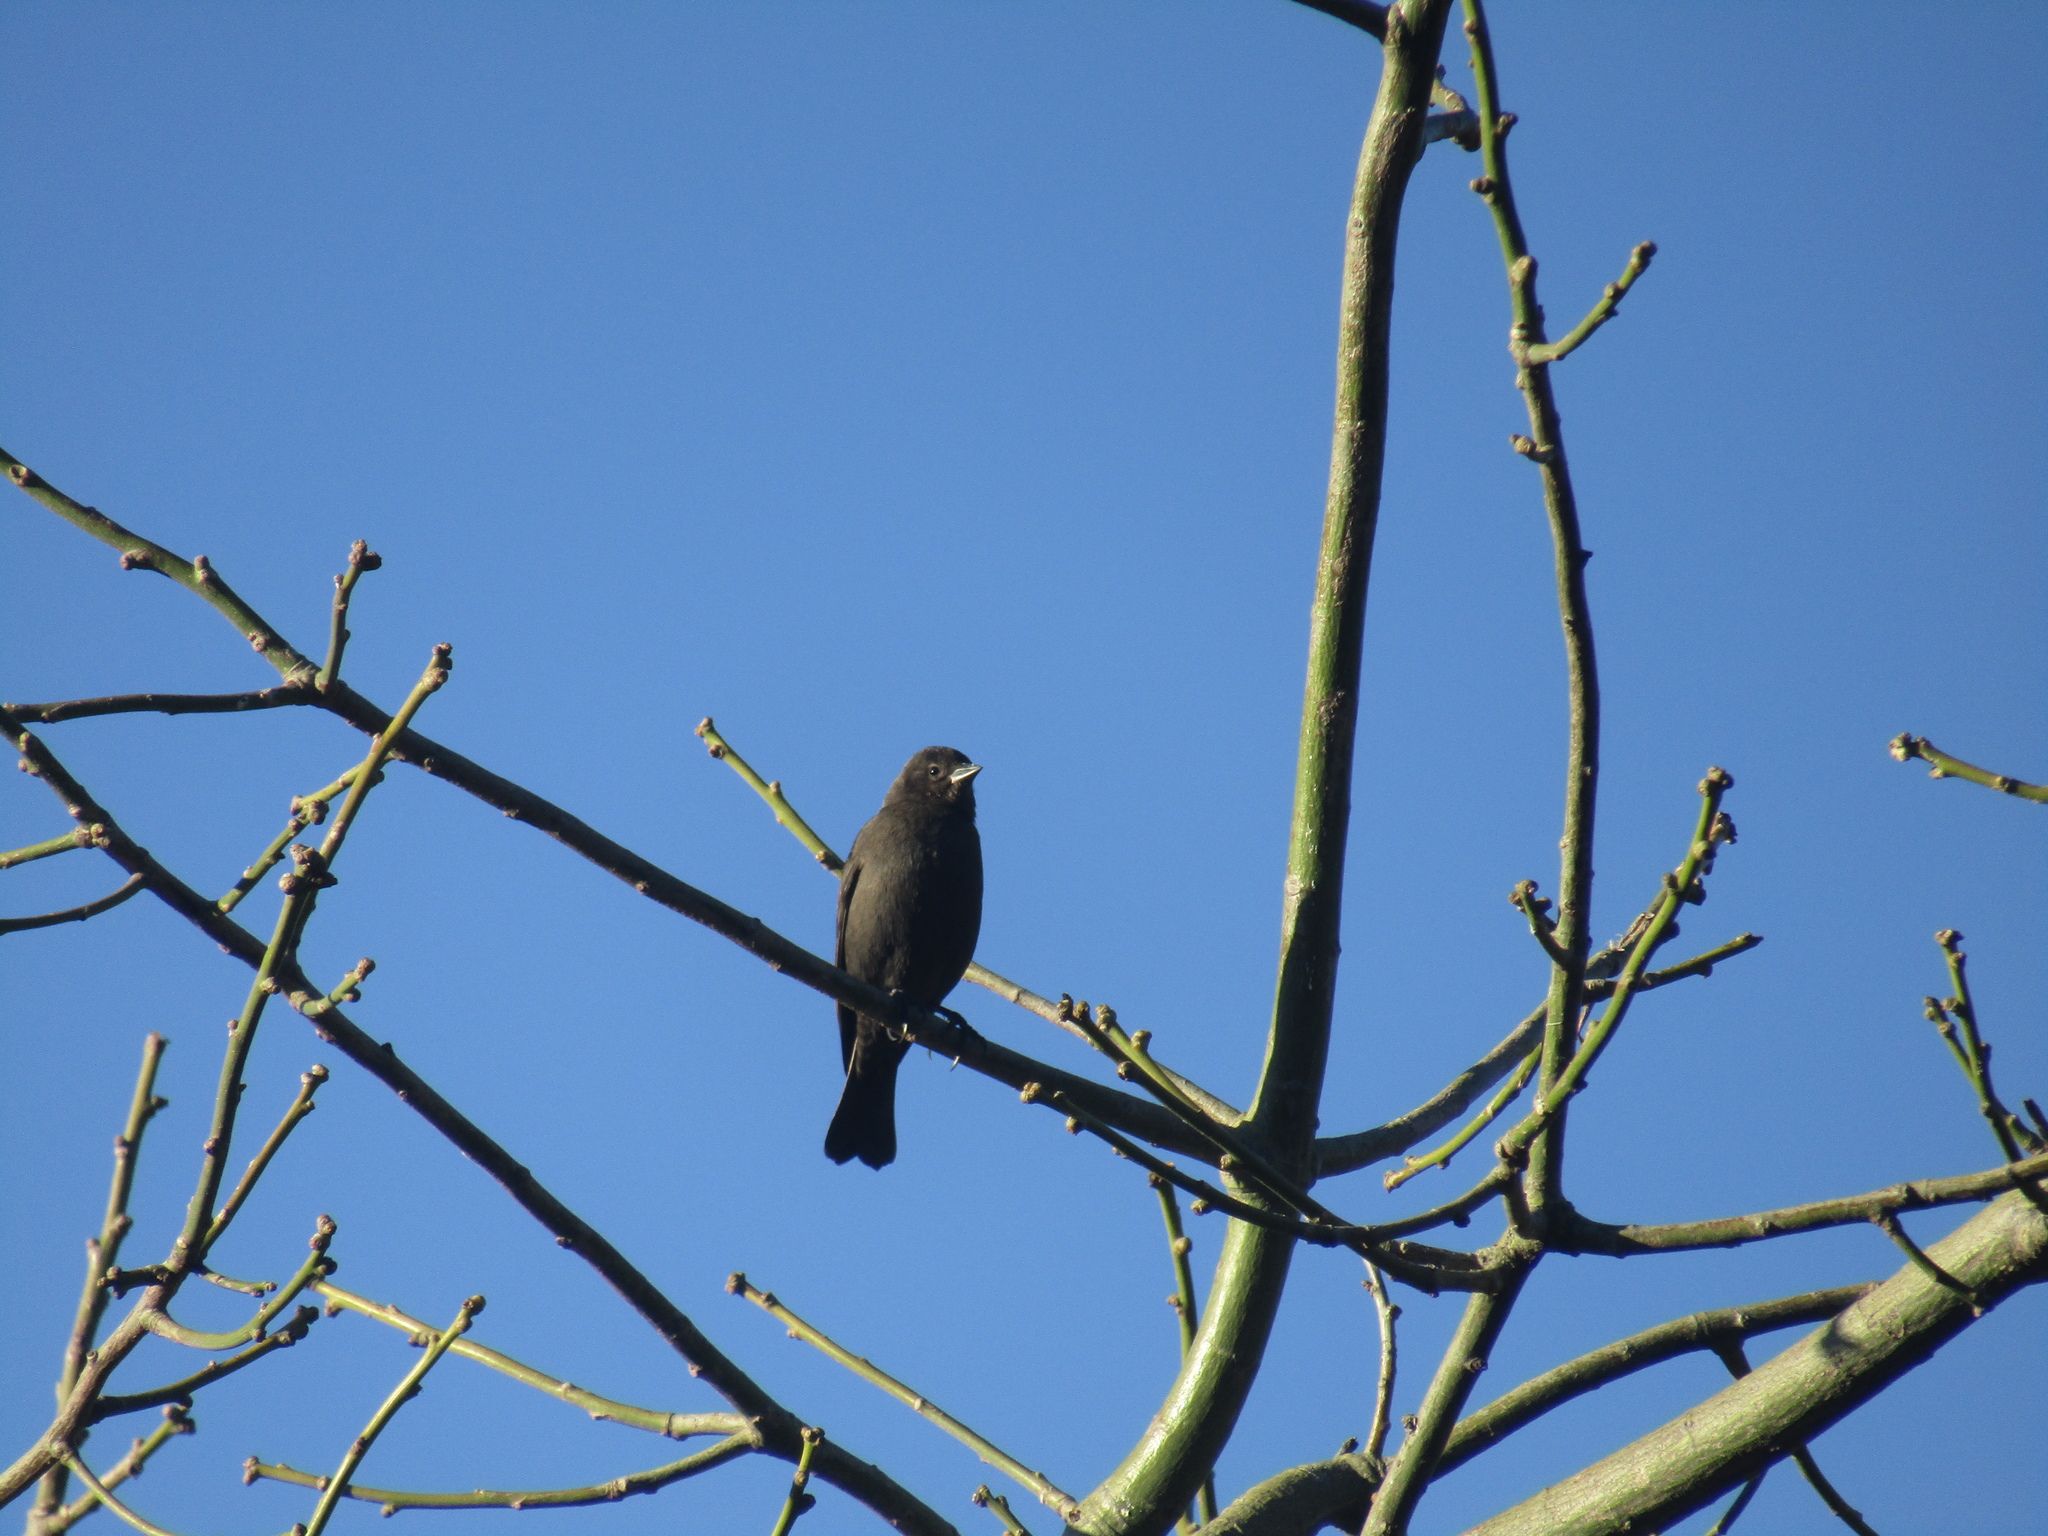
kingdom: Animalia
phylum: Chordata
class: Aves
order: Passeriformes
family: Icteridae
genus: Molothrus
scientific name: Molothrus rufoaxillaris
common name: Screaming cowbird
